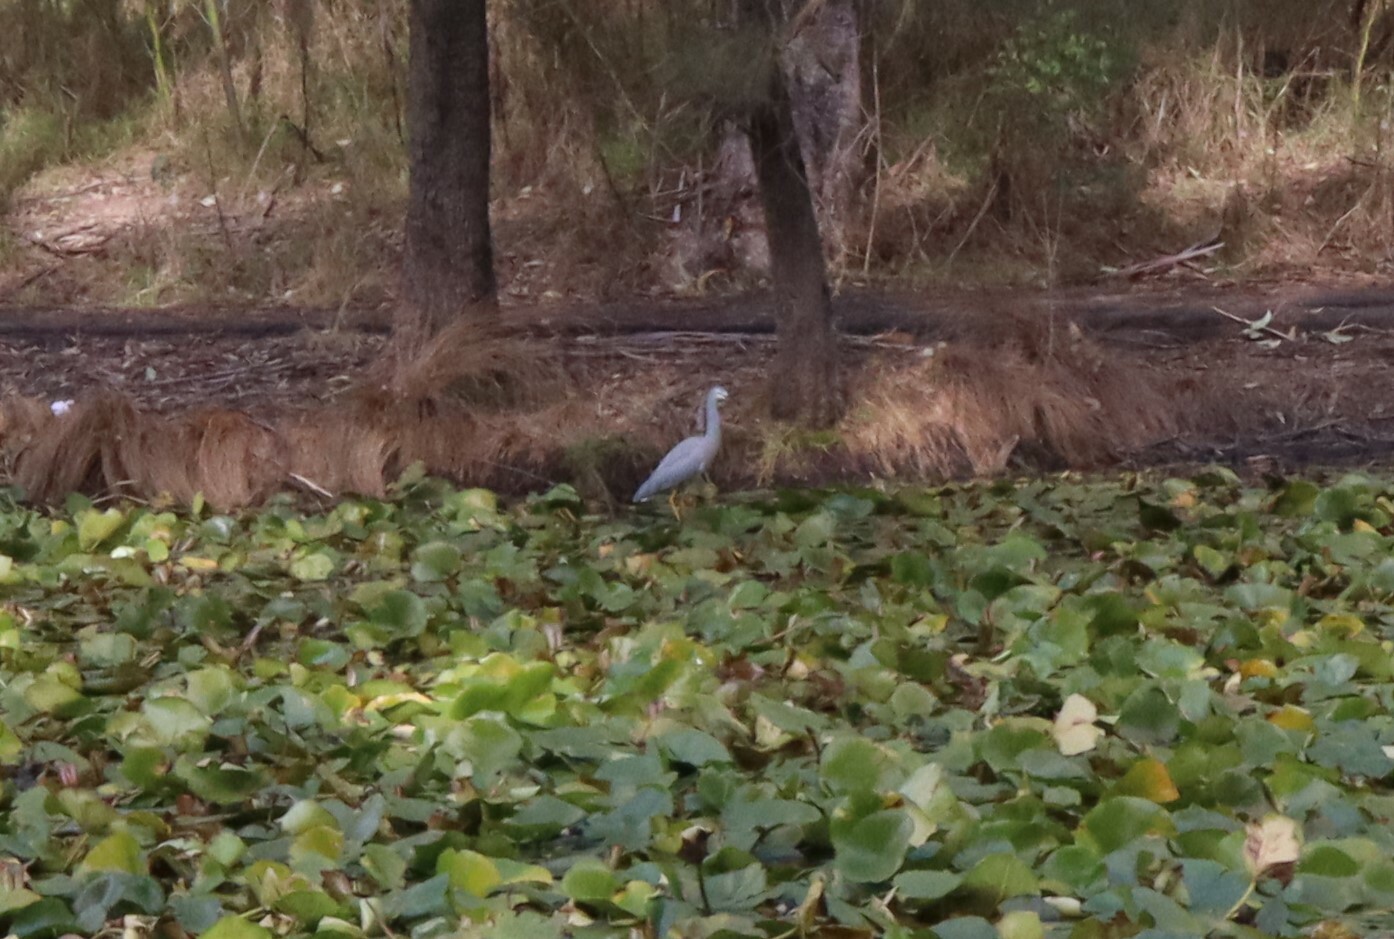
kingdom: Animalia
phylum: Chordata
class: Aves
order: Pelecaniformes
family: Ardeidae
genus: Egretta
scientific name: Egretta novaehollandiae
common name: White-faced heron
